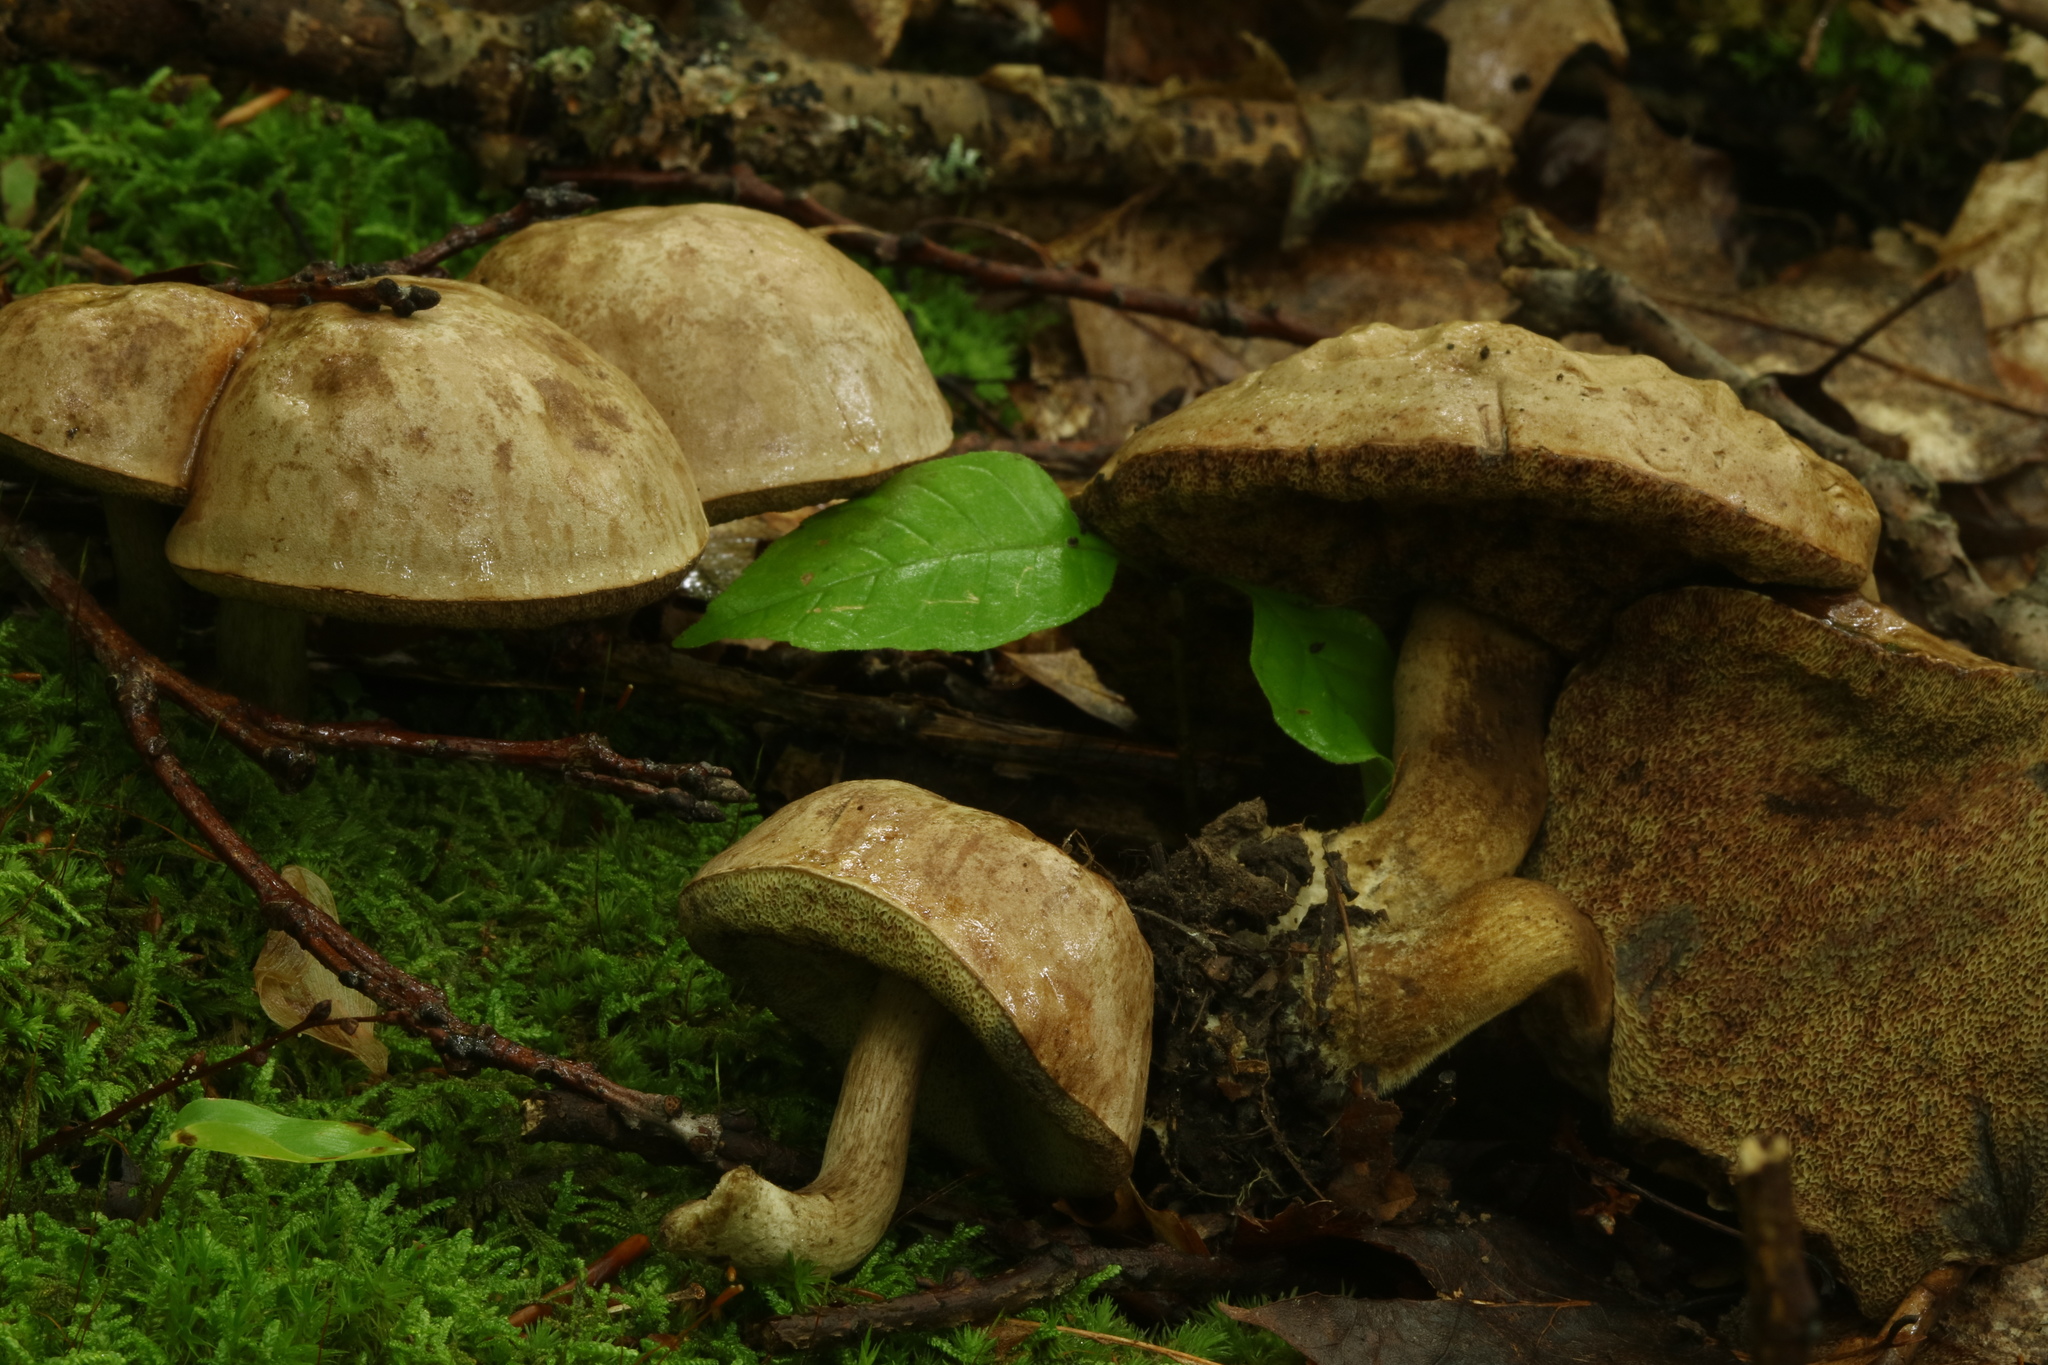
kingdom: Fungi
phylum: Basidiomycota
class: Agaricomycetes
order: Boletales
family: Boletaceae
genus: Imleria
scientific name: Imleria pallida
